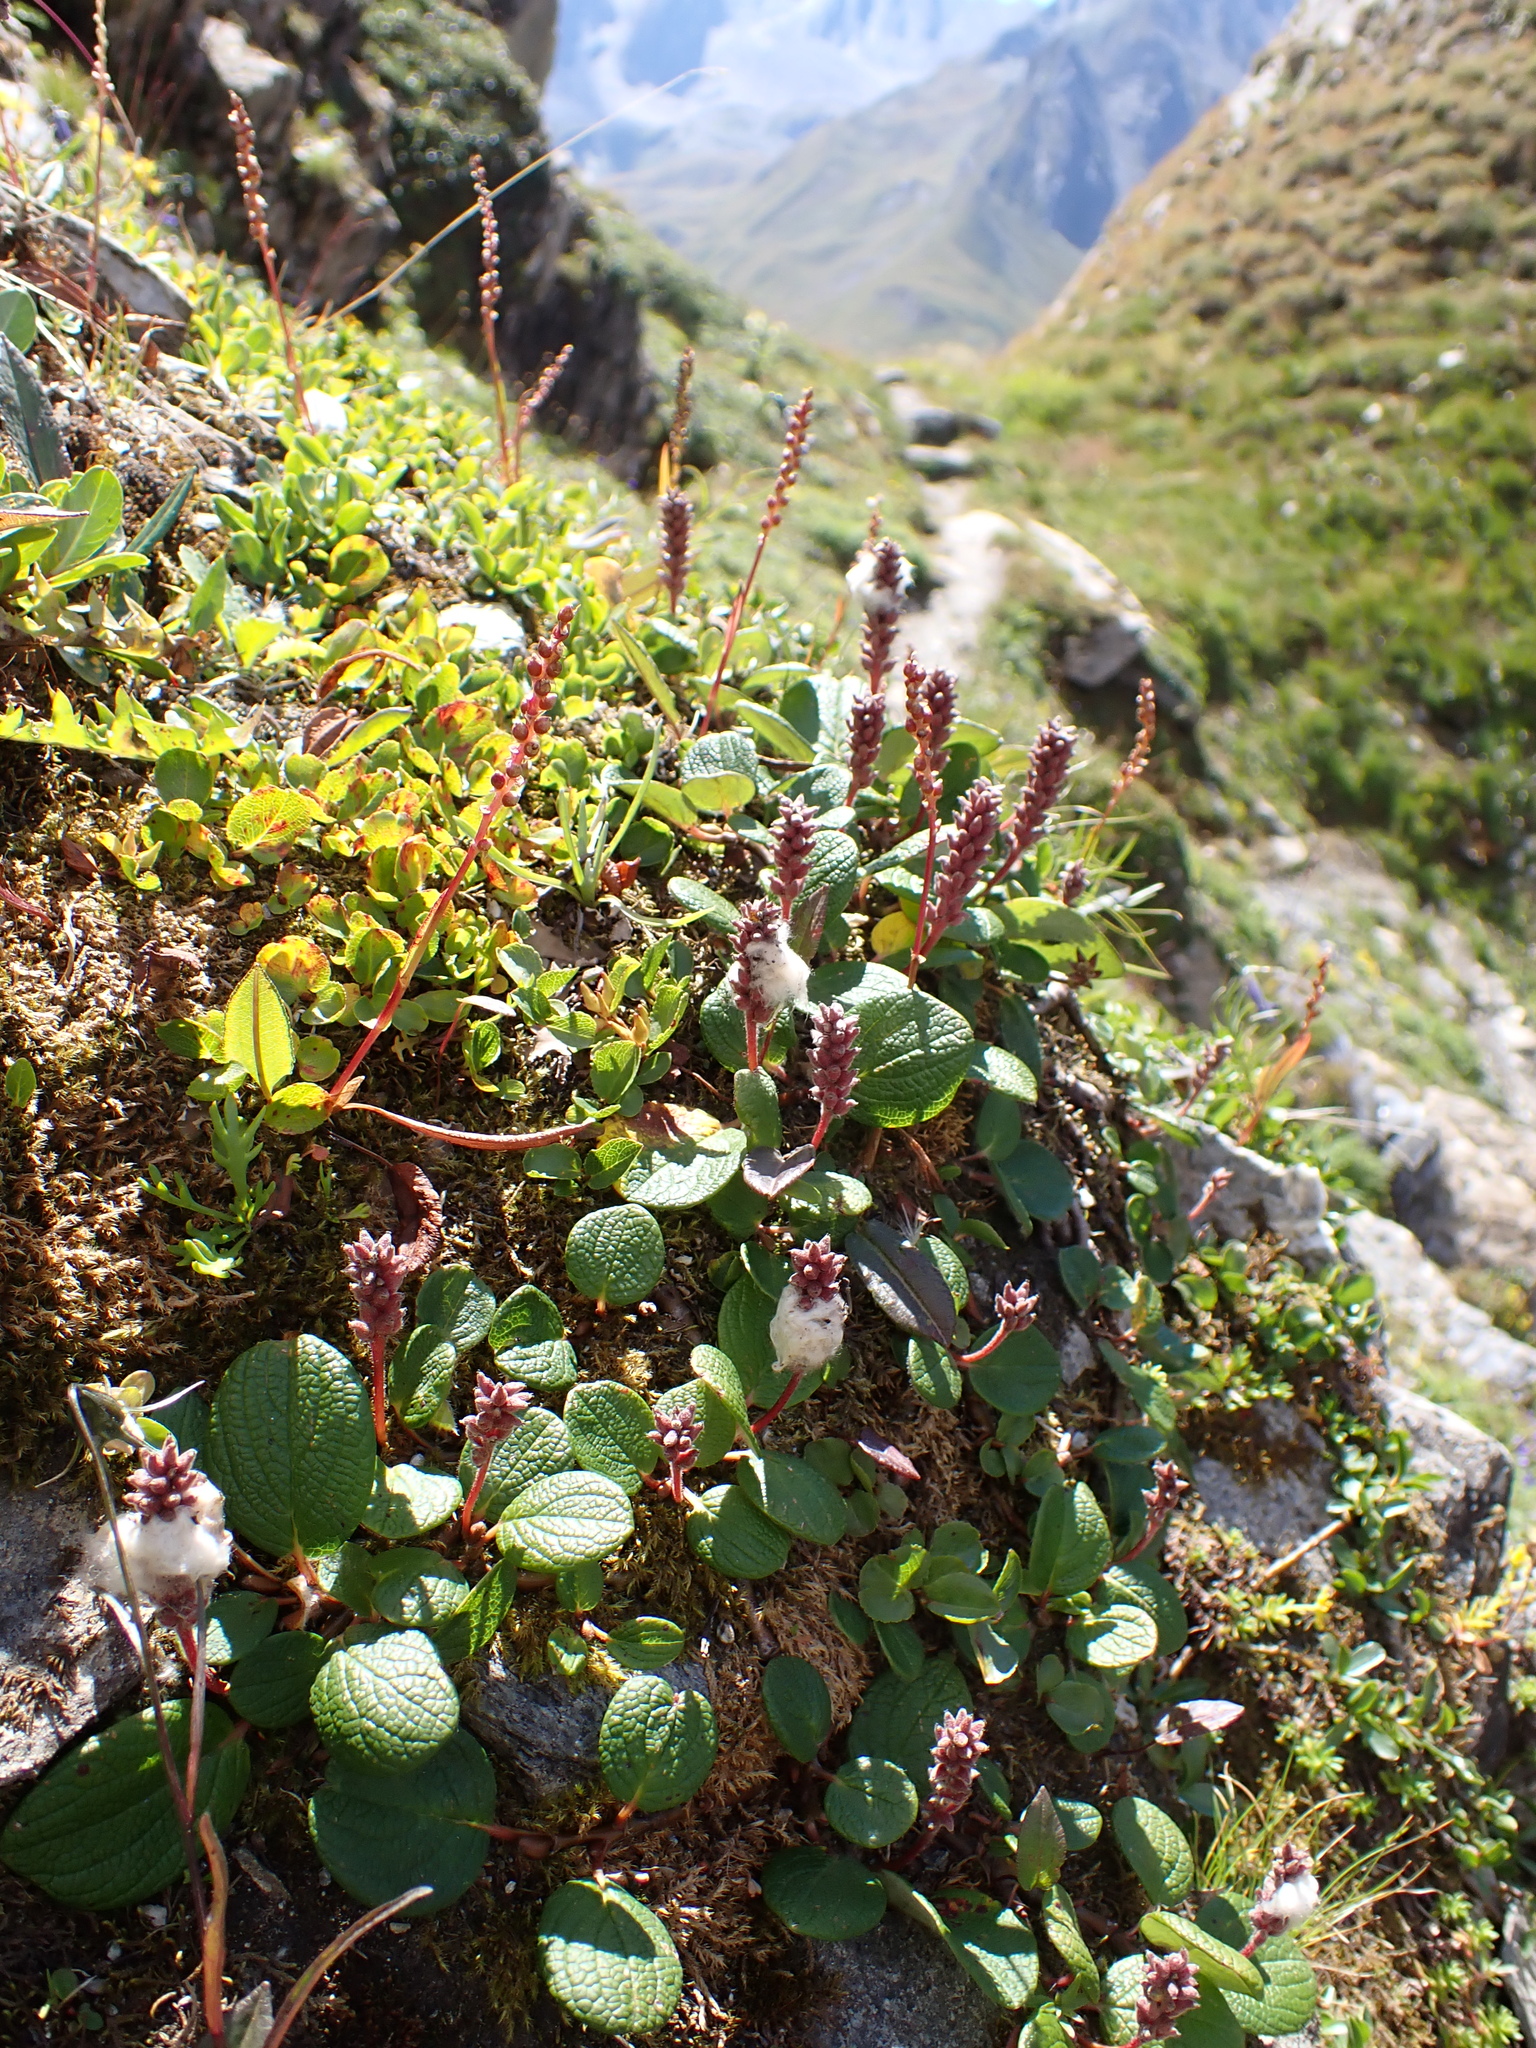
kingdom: Plantae
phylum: Tracheophyta
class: Magnoliopsida
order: Malpighiales
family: Salicaceae
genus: Salix
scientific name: Salix reticulata
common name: Net-leaved willow
